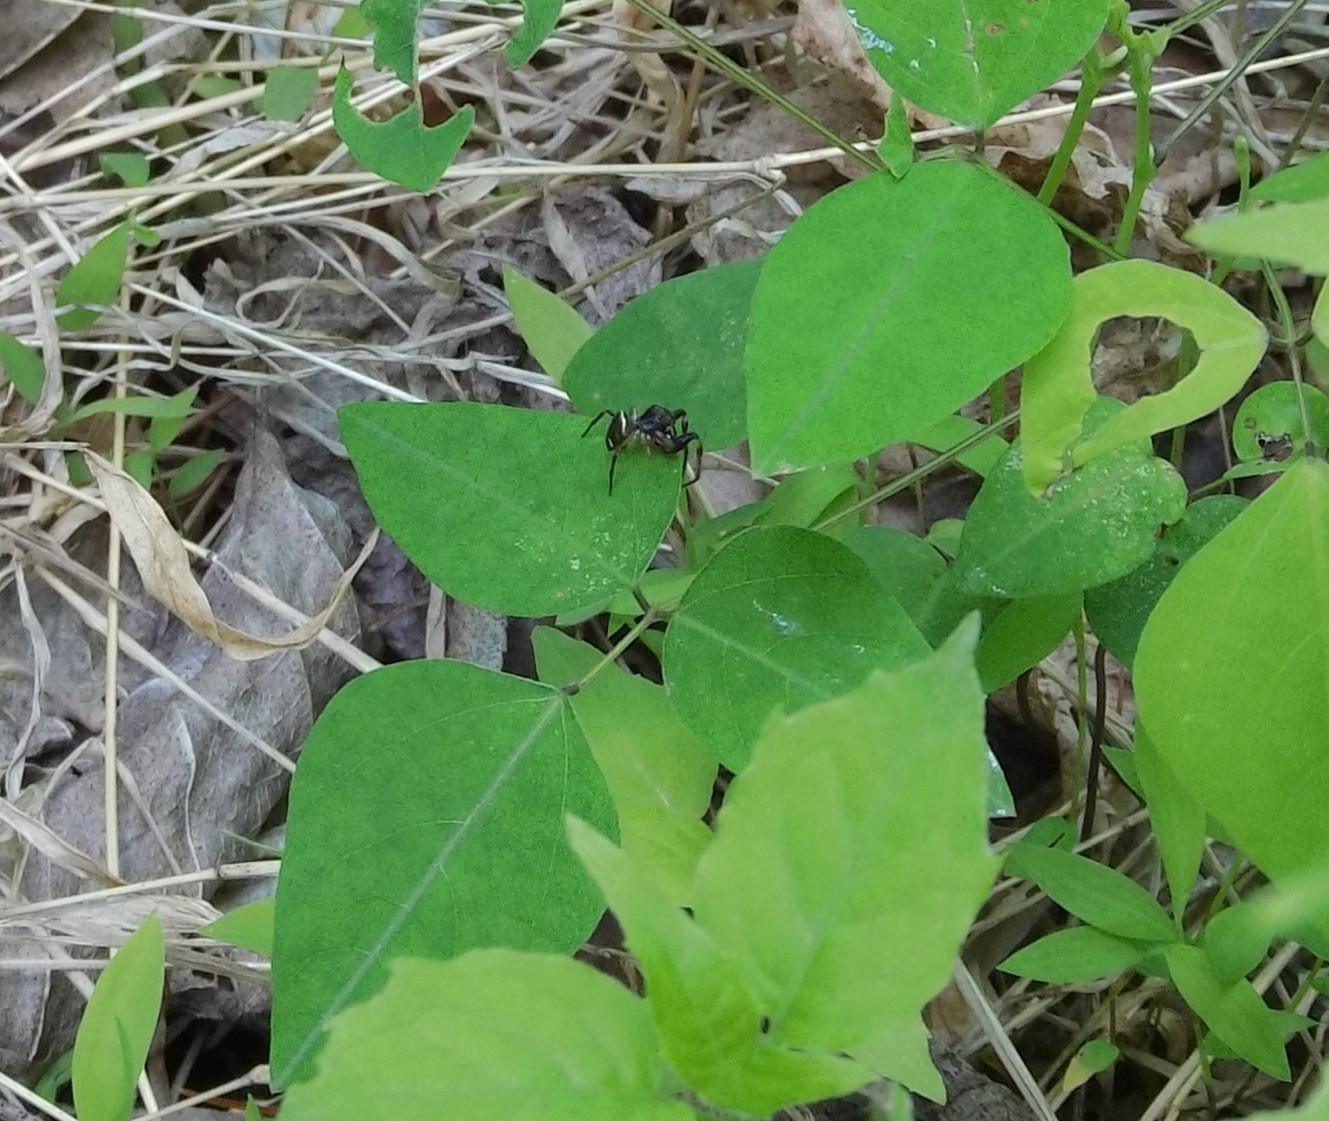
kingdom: Plantae
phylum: Tracheophyta
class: Magnoliopsida
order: Fabales
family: Fabaceae
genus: Amphicarpaea
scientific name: Amphicarpaea bracteata
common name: American hog peanut
